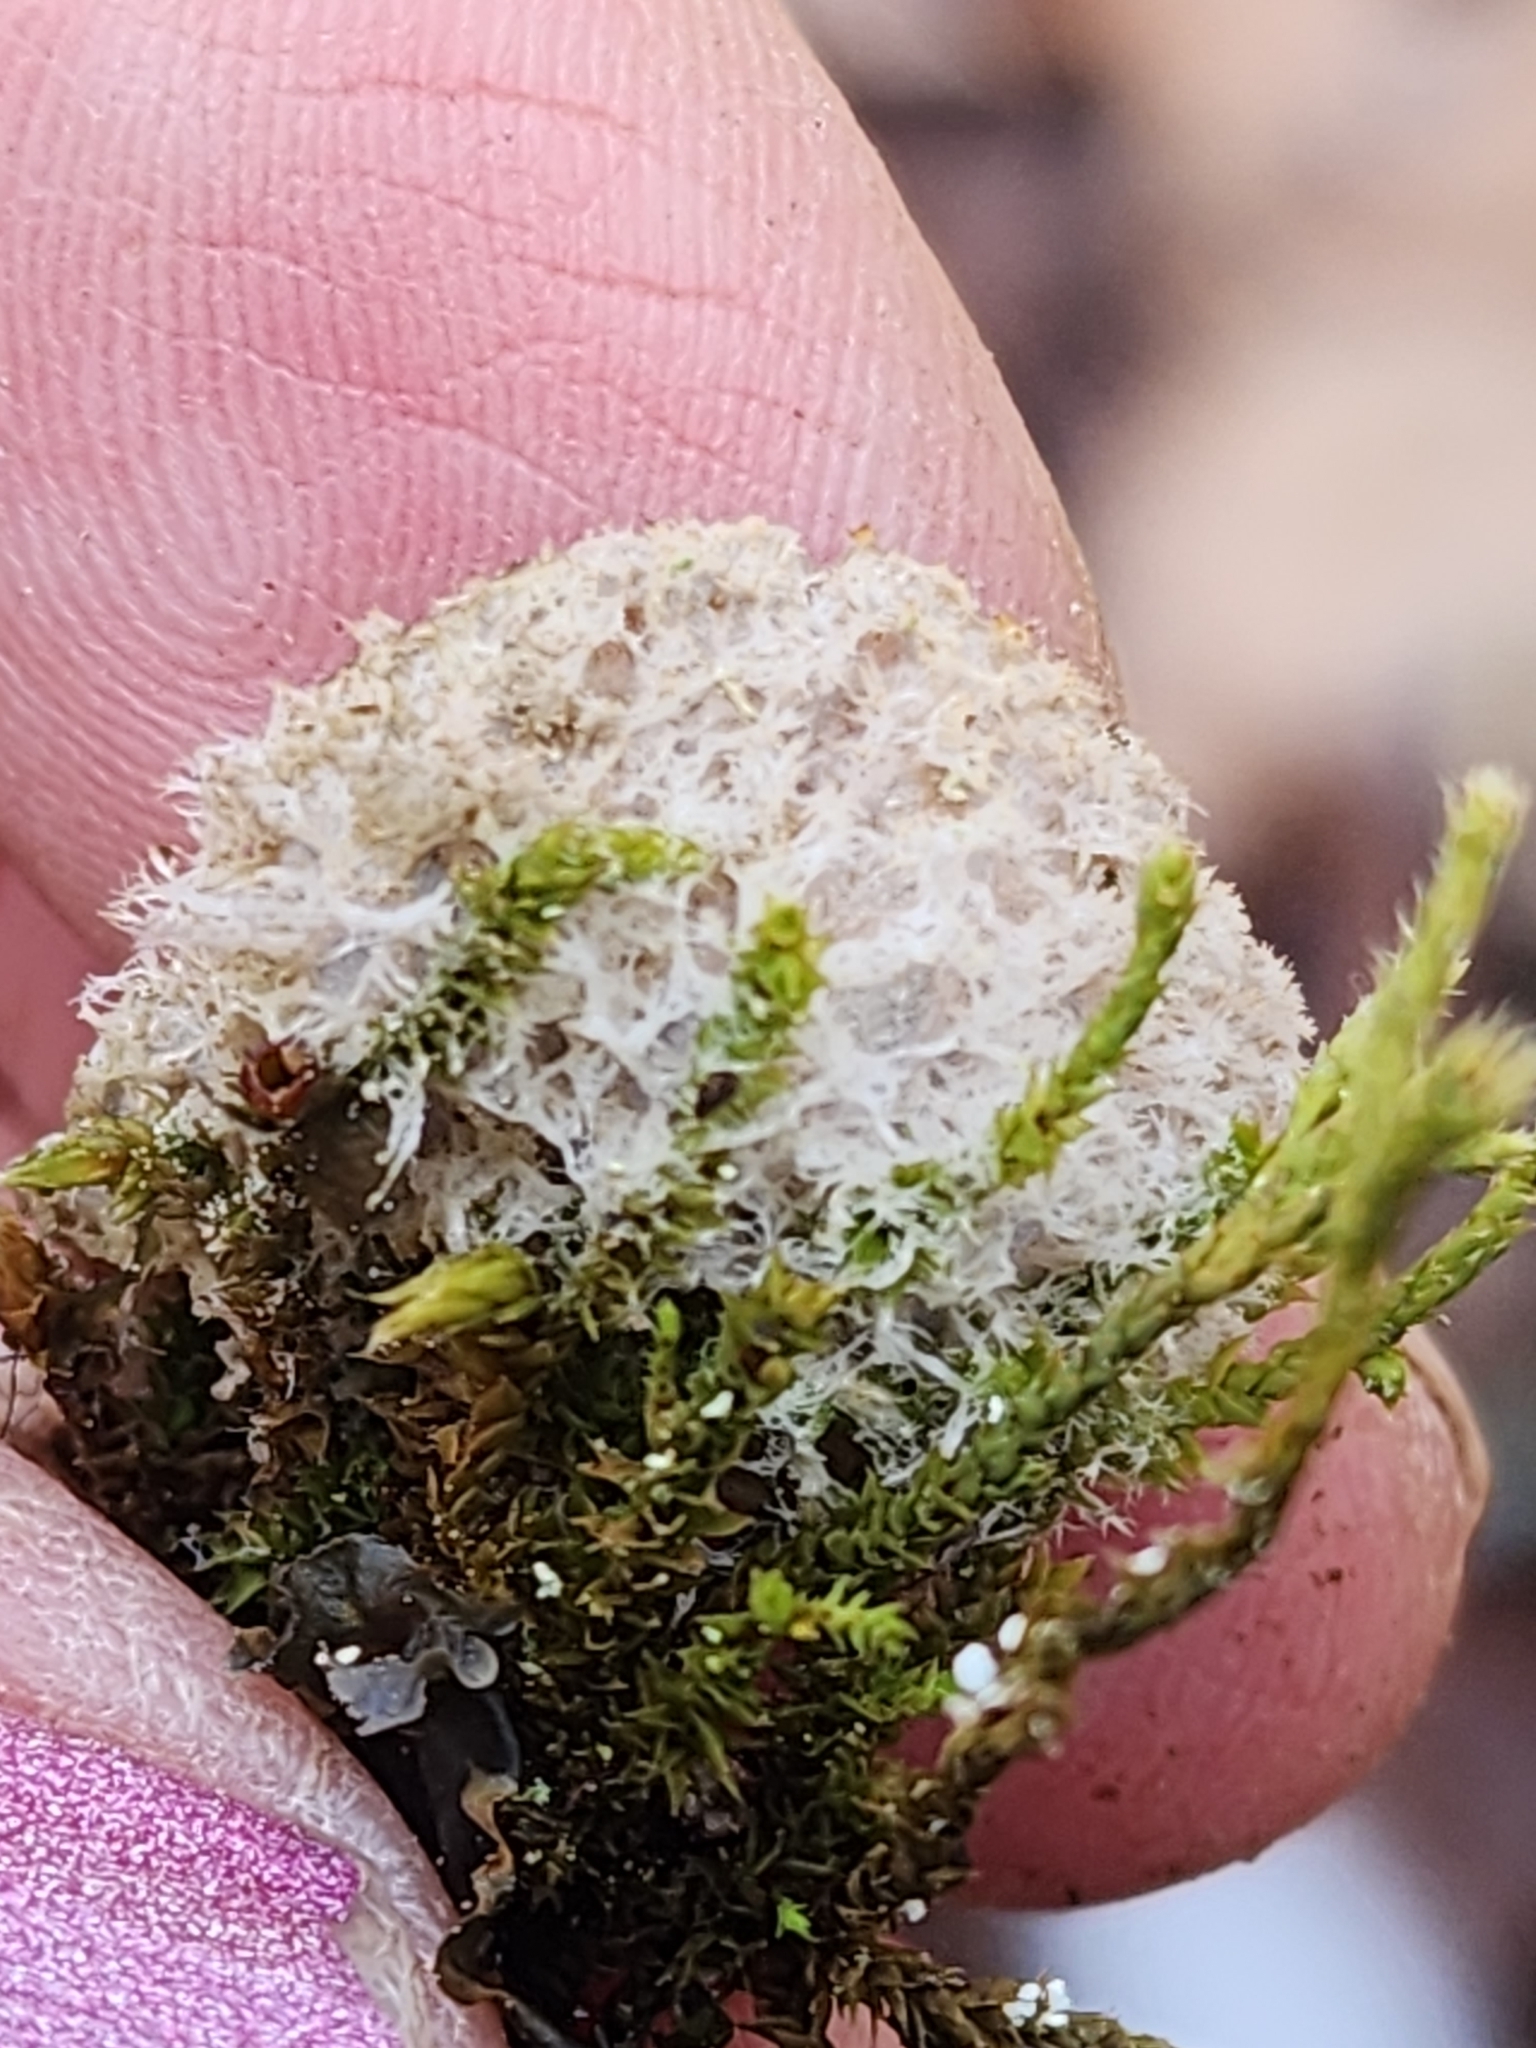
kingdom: Fungi
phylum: Ascomycota
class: Lecanoromycetes
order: Peltigerales
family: Peltigeraceae
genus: Peltigera
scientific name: Peltigera extenuata
